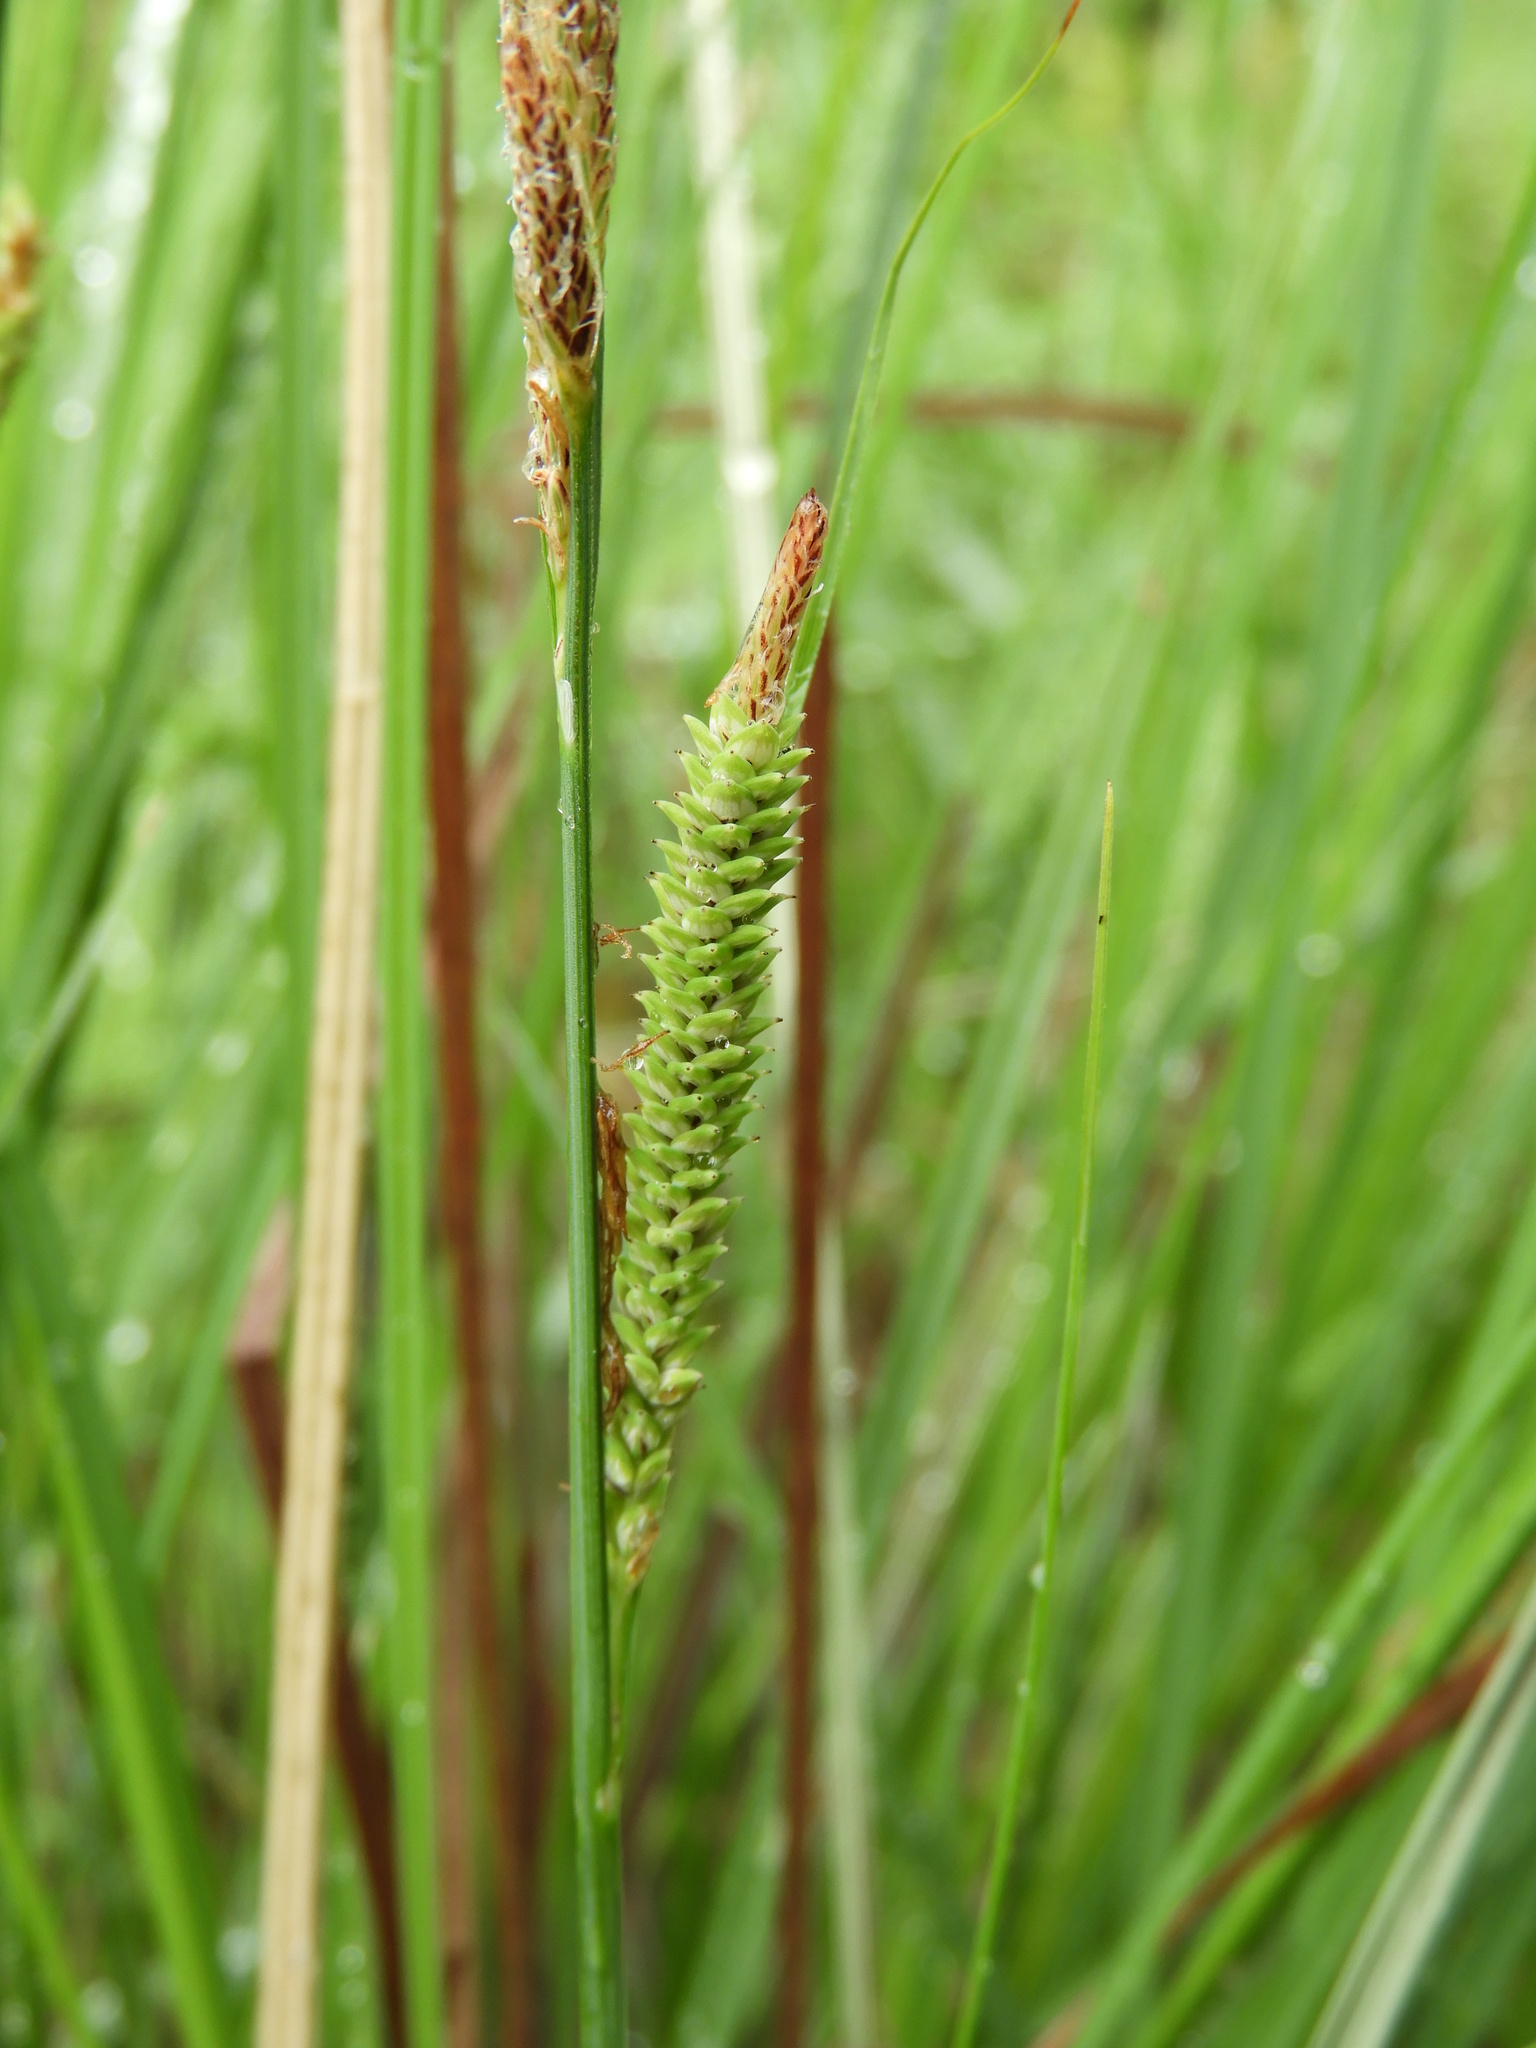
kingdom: Plantae
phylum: Tracheophyta
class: Liliopsida
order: Poales
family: Cyperaceae
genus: Carex
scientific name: Carex quixotiana
